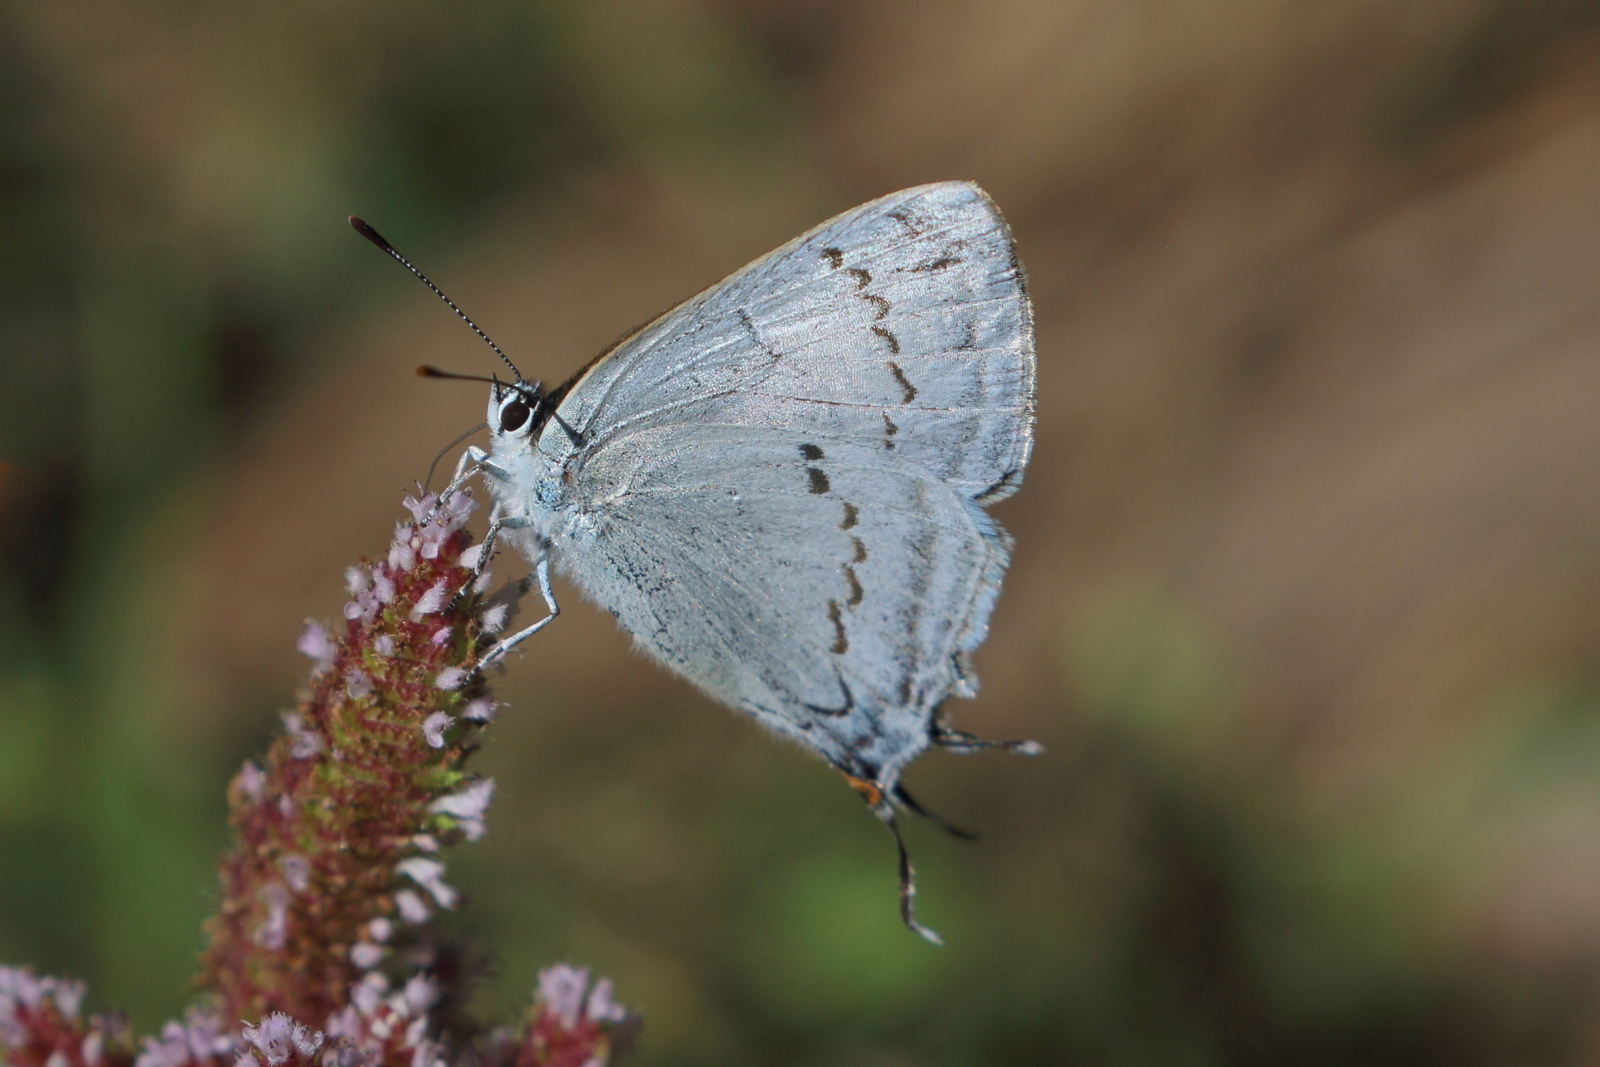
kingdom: Animalia
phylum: Arthropoda
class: Insecta
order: Lepidoptera
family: Lycaenidae
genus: Maneca
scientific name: Maneca bhotea
